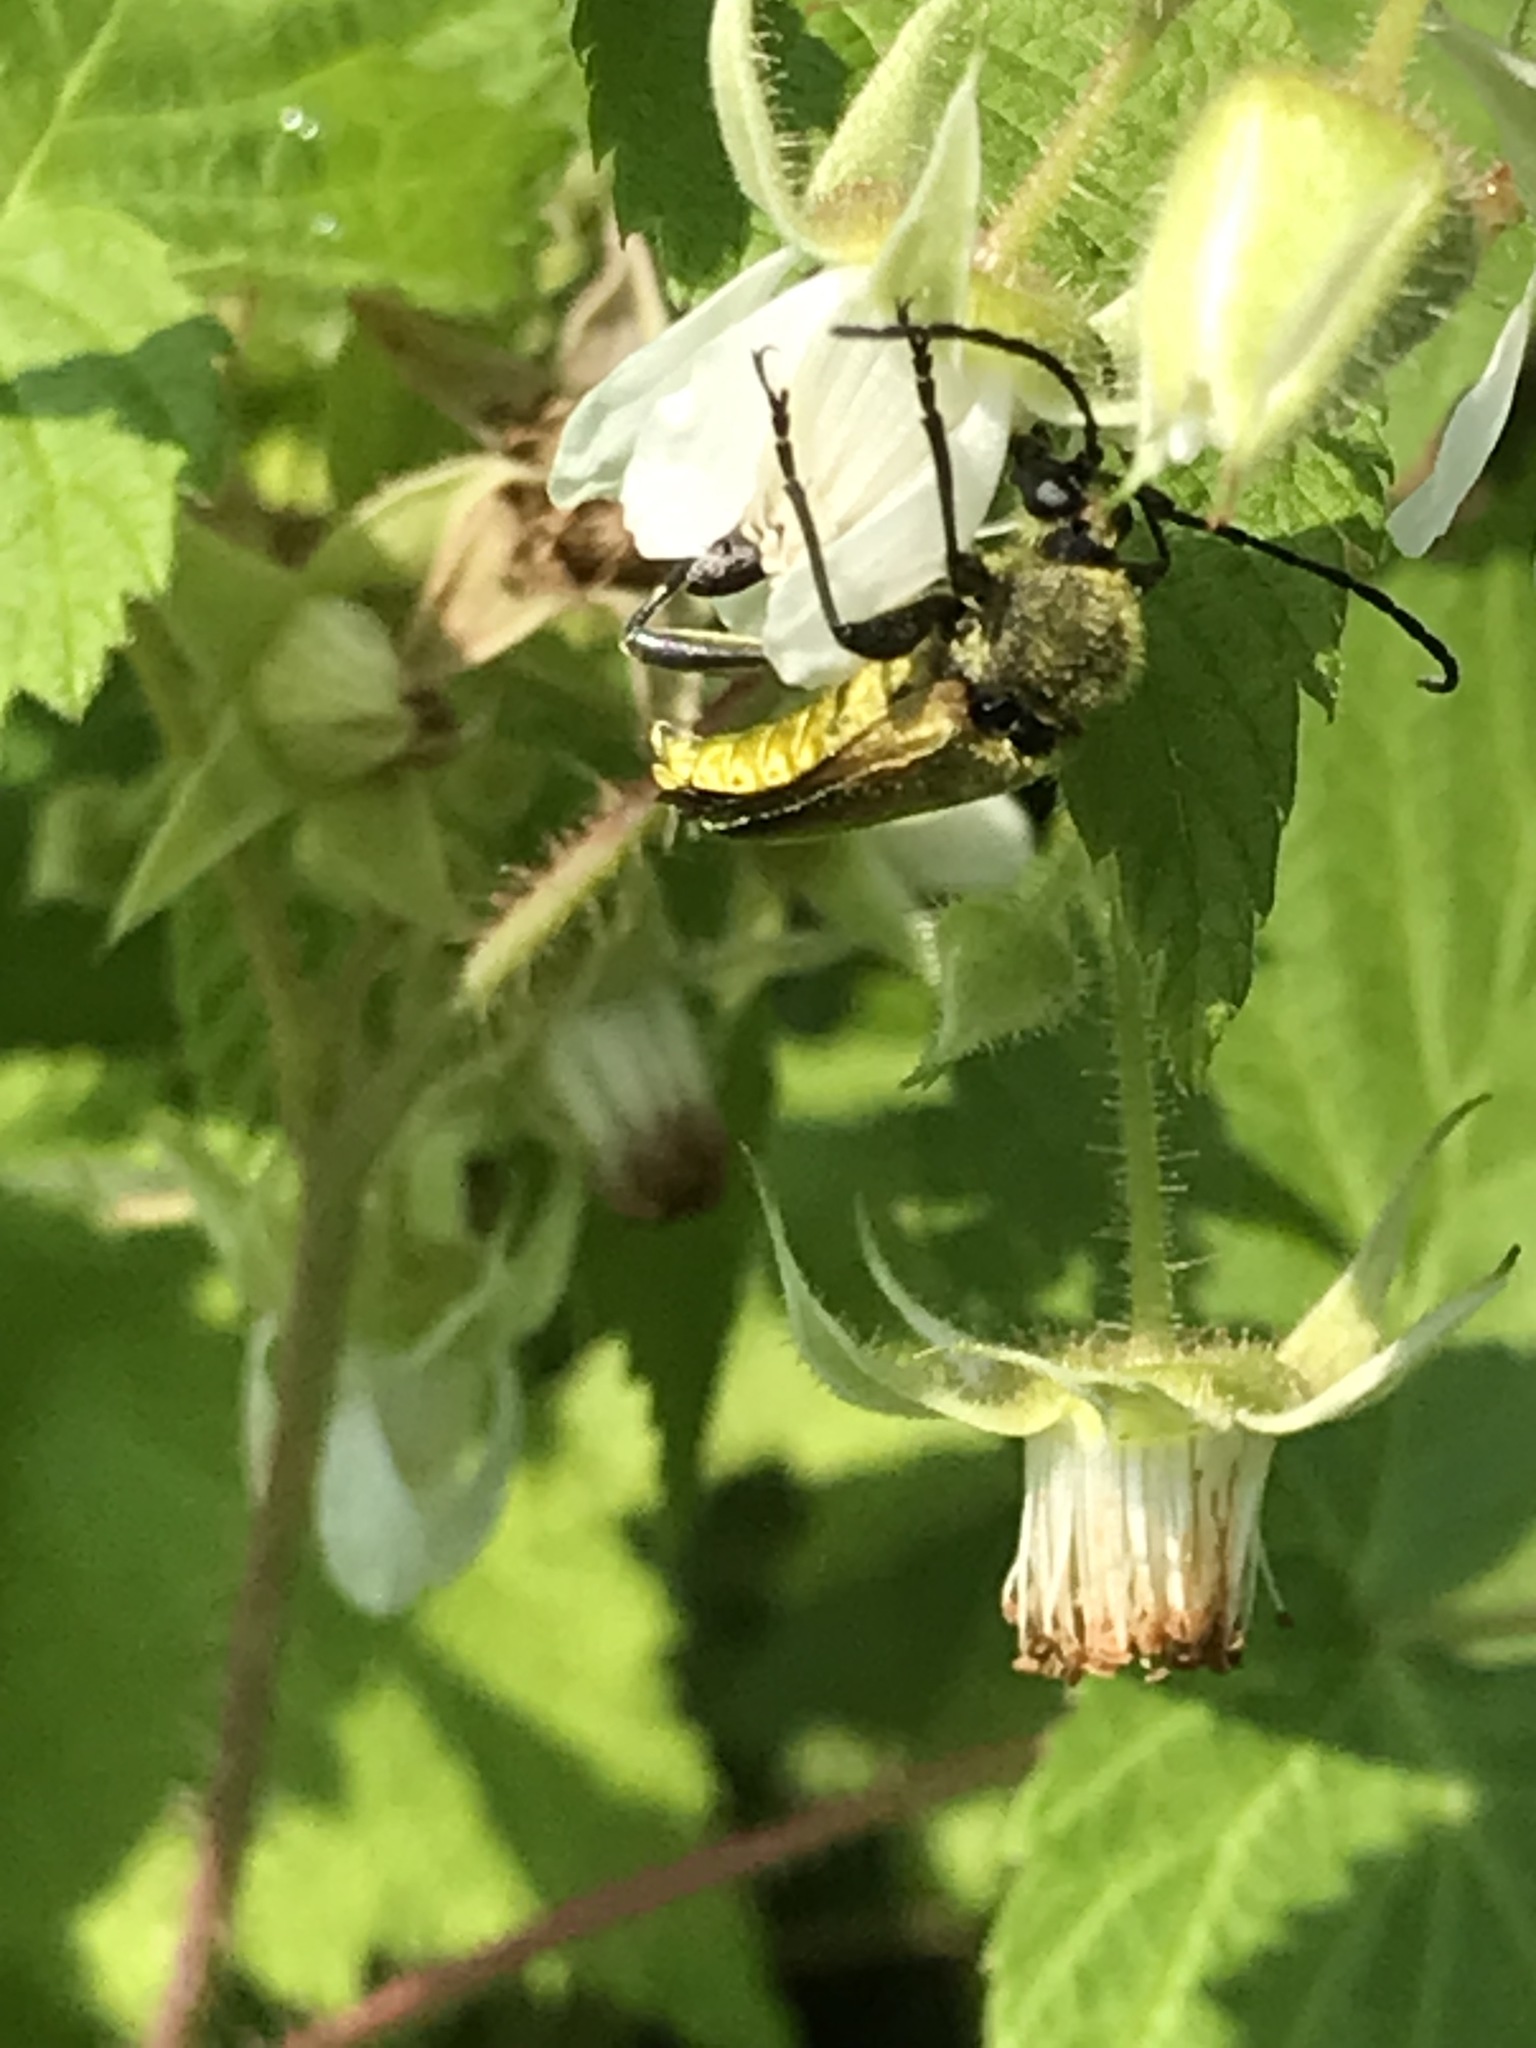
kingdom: Animalia
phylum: Arthropoda
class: Insecta
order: Coleoptera
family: Cerambycidae
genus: Cosmosalia
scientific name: Cosmosalia chrysocoma
